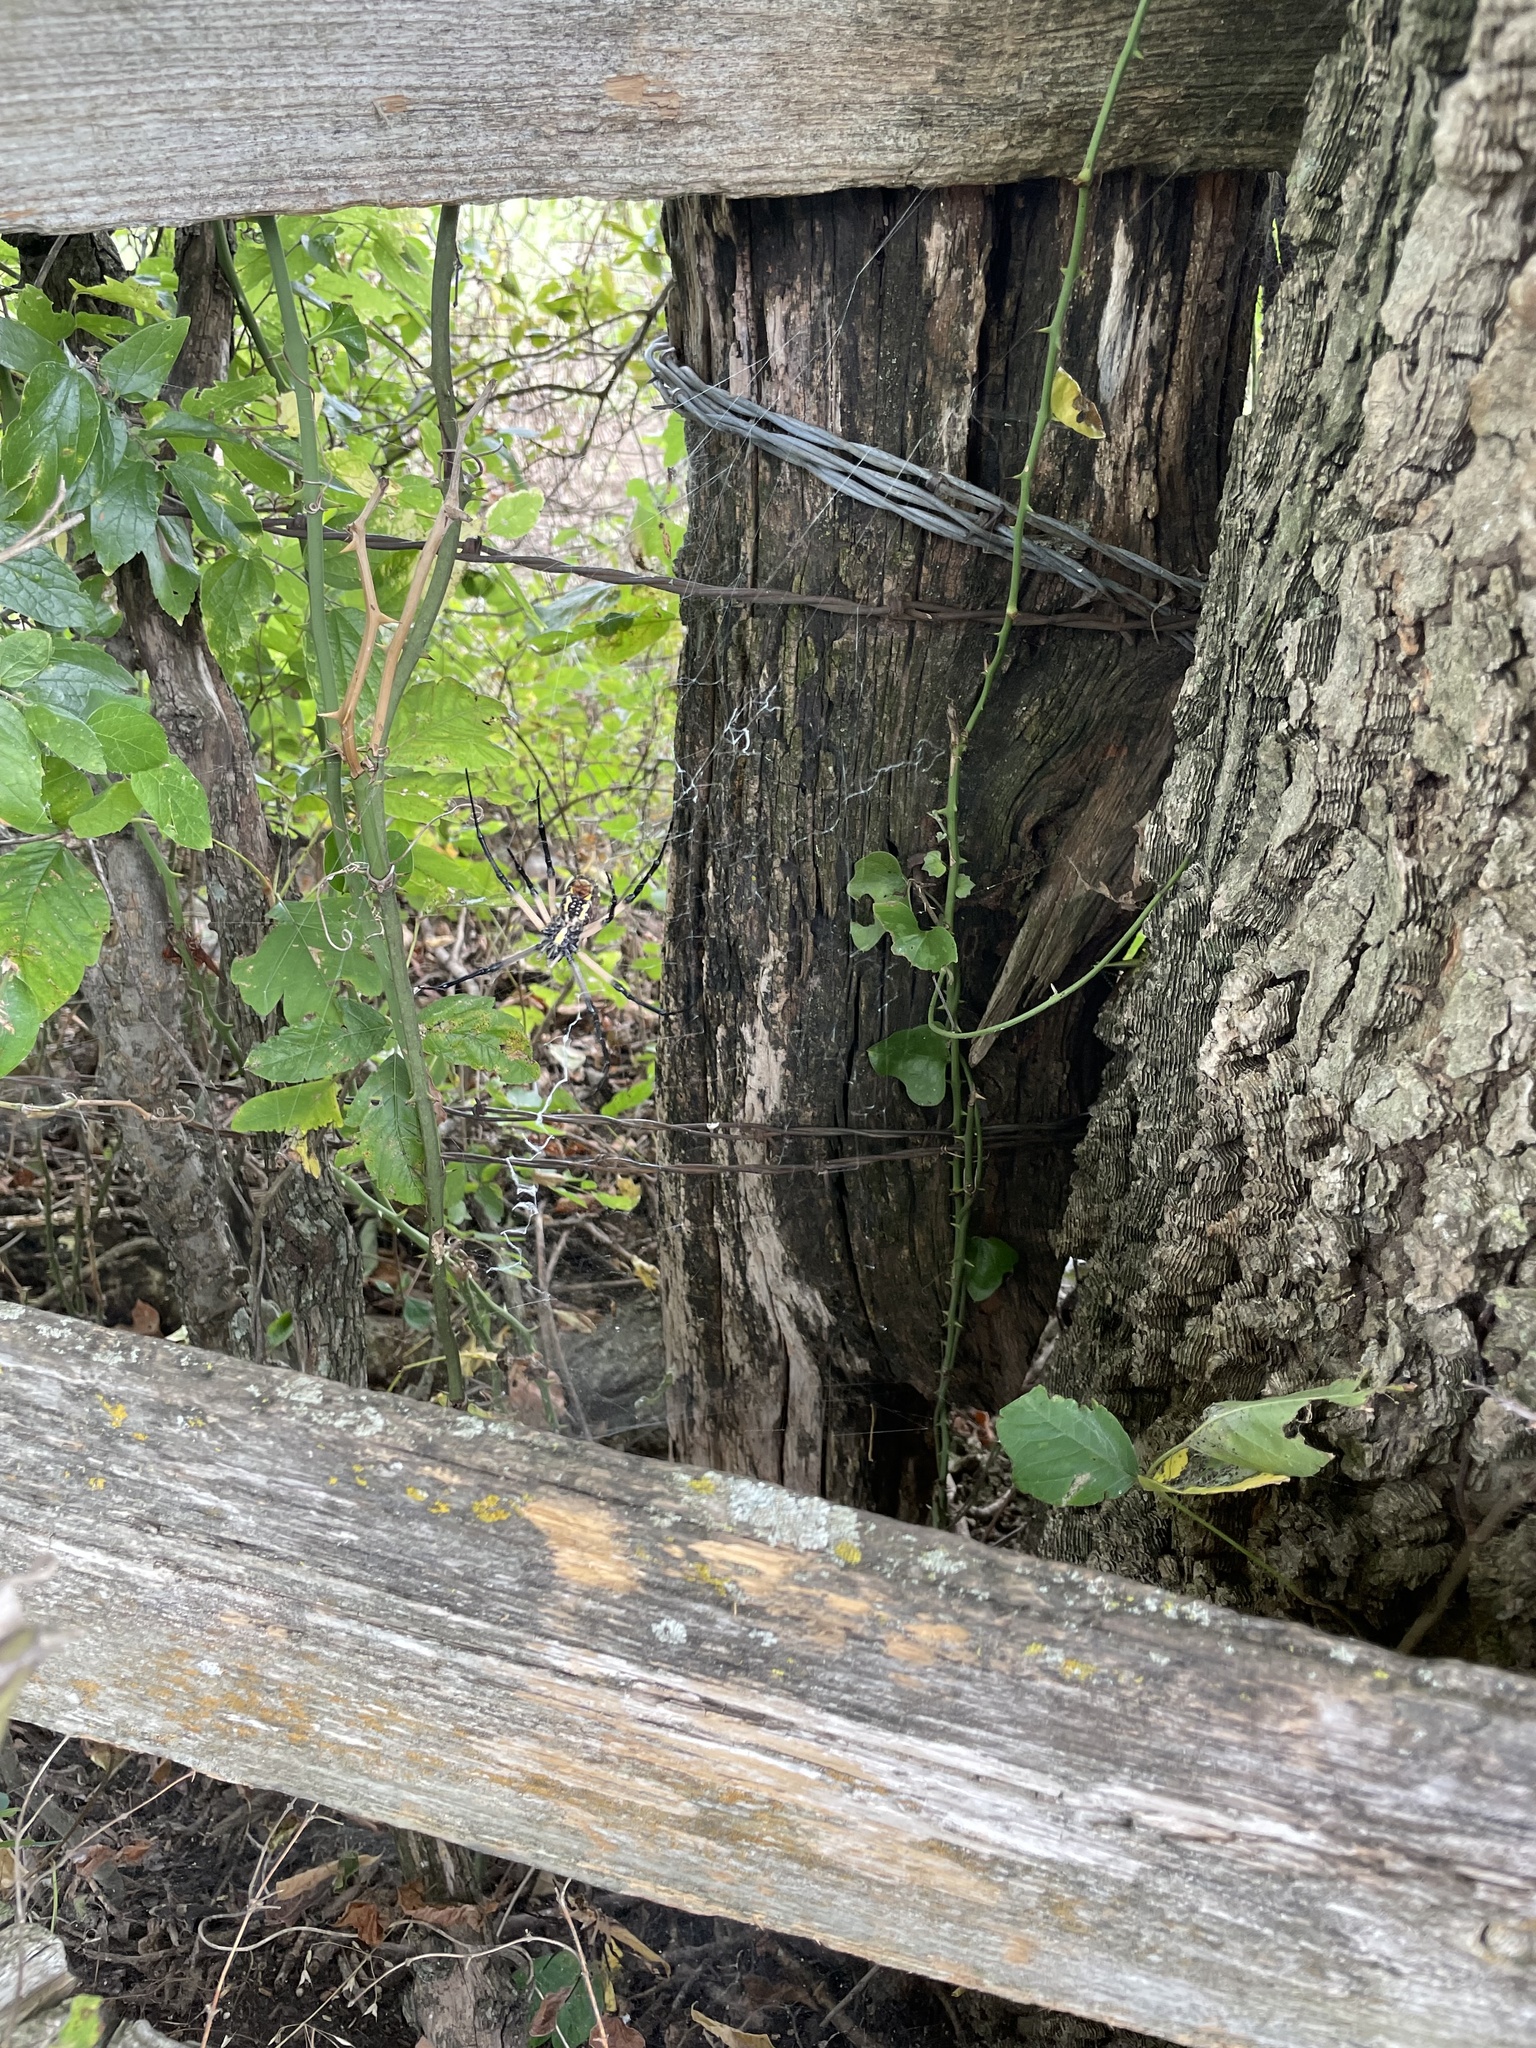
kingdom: Animalia
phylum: Arthropoda
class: Arachnida
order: Araneae
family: Araneidae
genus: Argiope
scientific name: Argiope aurantia
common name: Orb weavers
